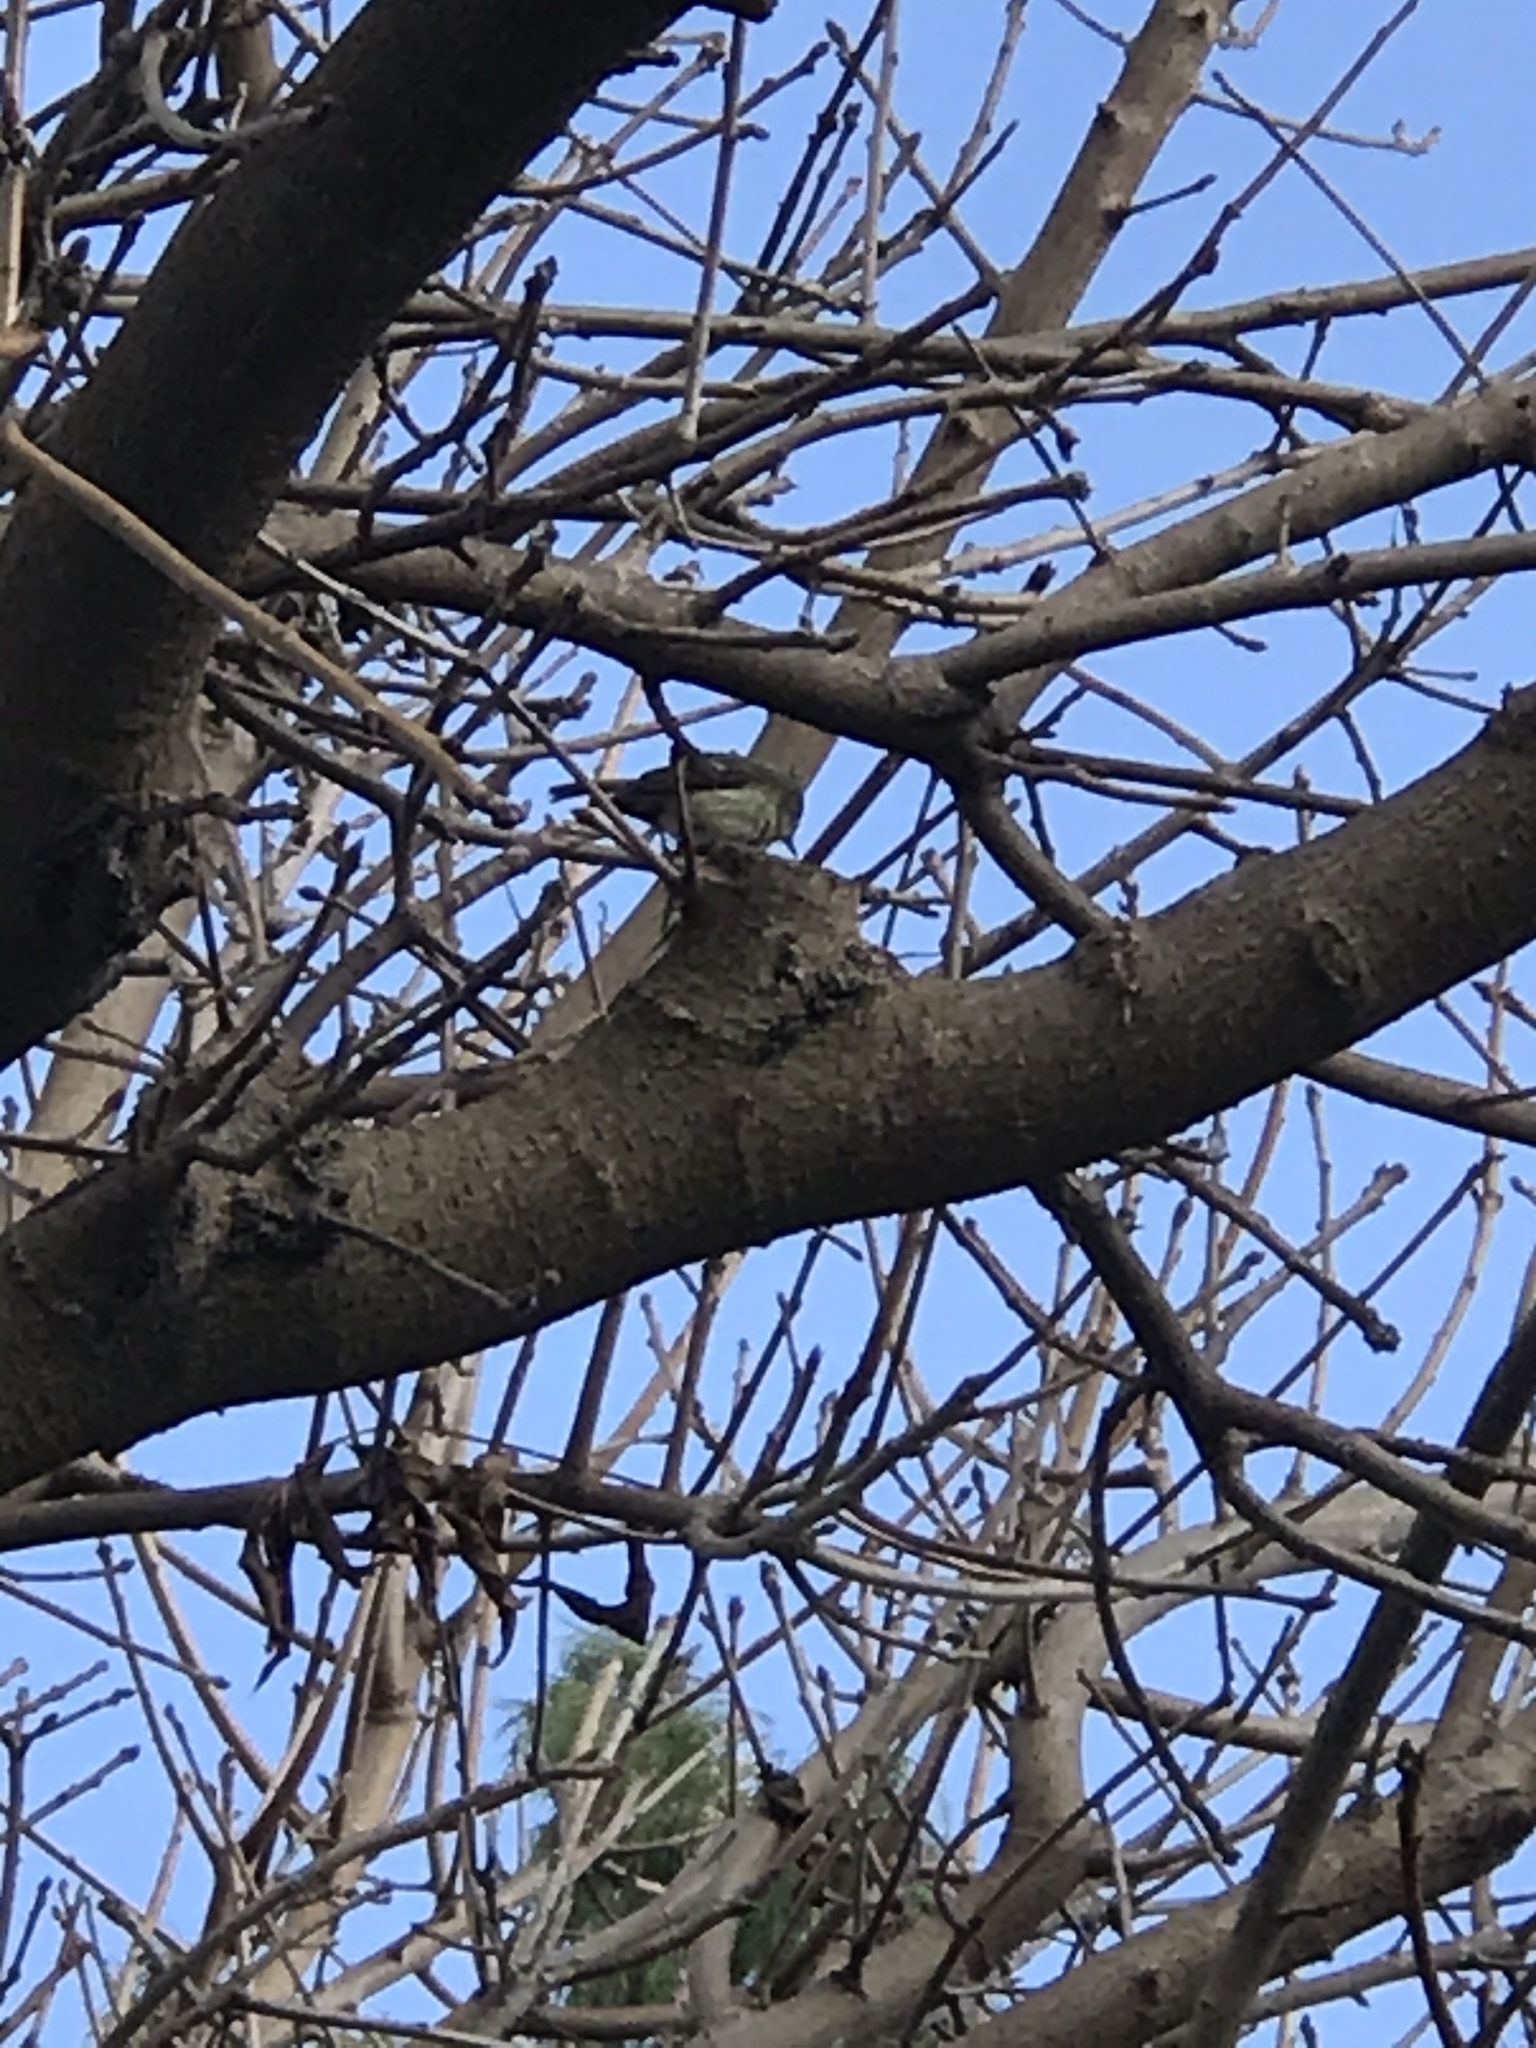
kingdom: Animalia
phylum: Chordata
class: Aves
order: Passeriformes
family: Regulidae
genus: Regulus
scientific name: Regulus calendula
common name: Ruby-crowned kinglet
